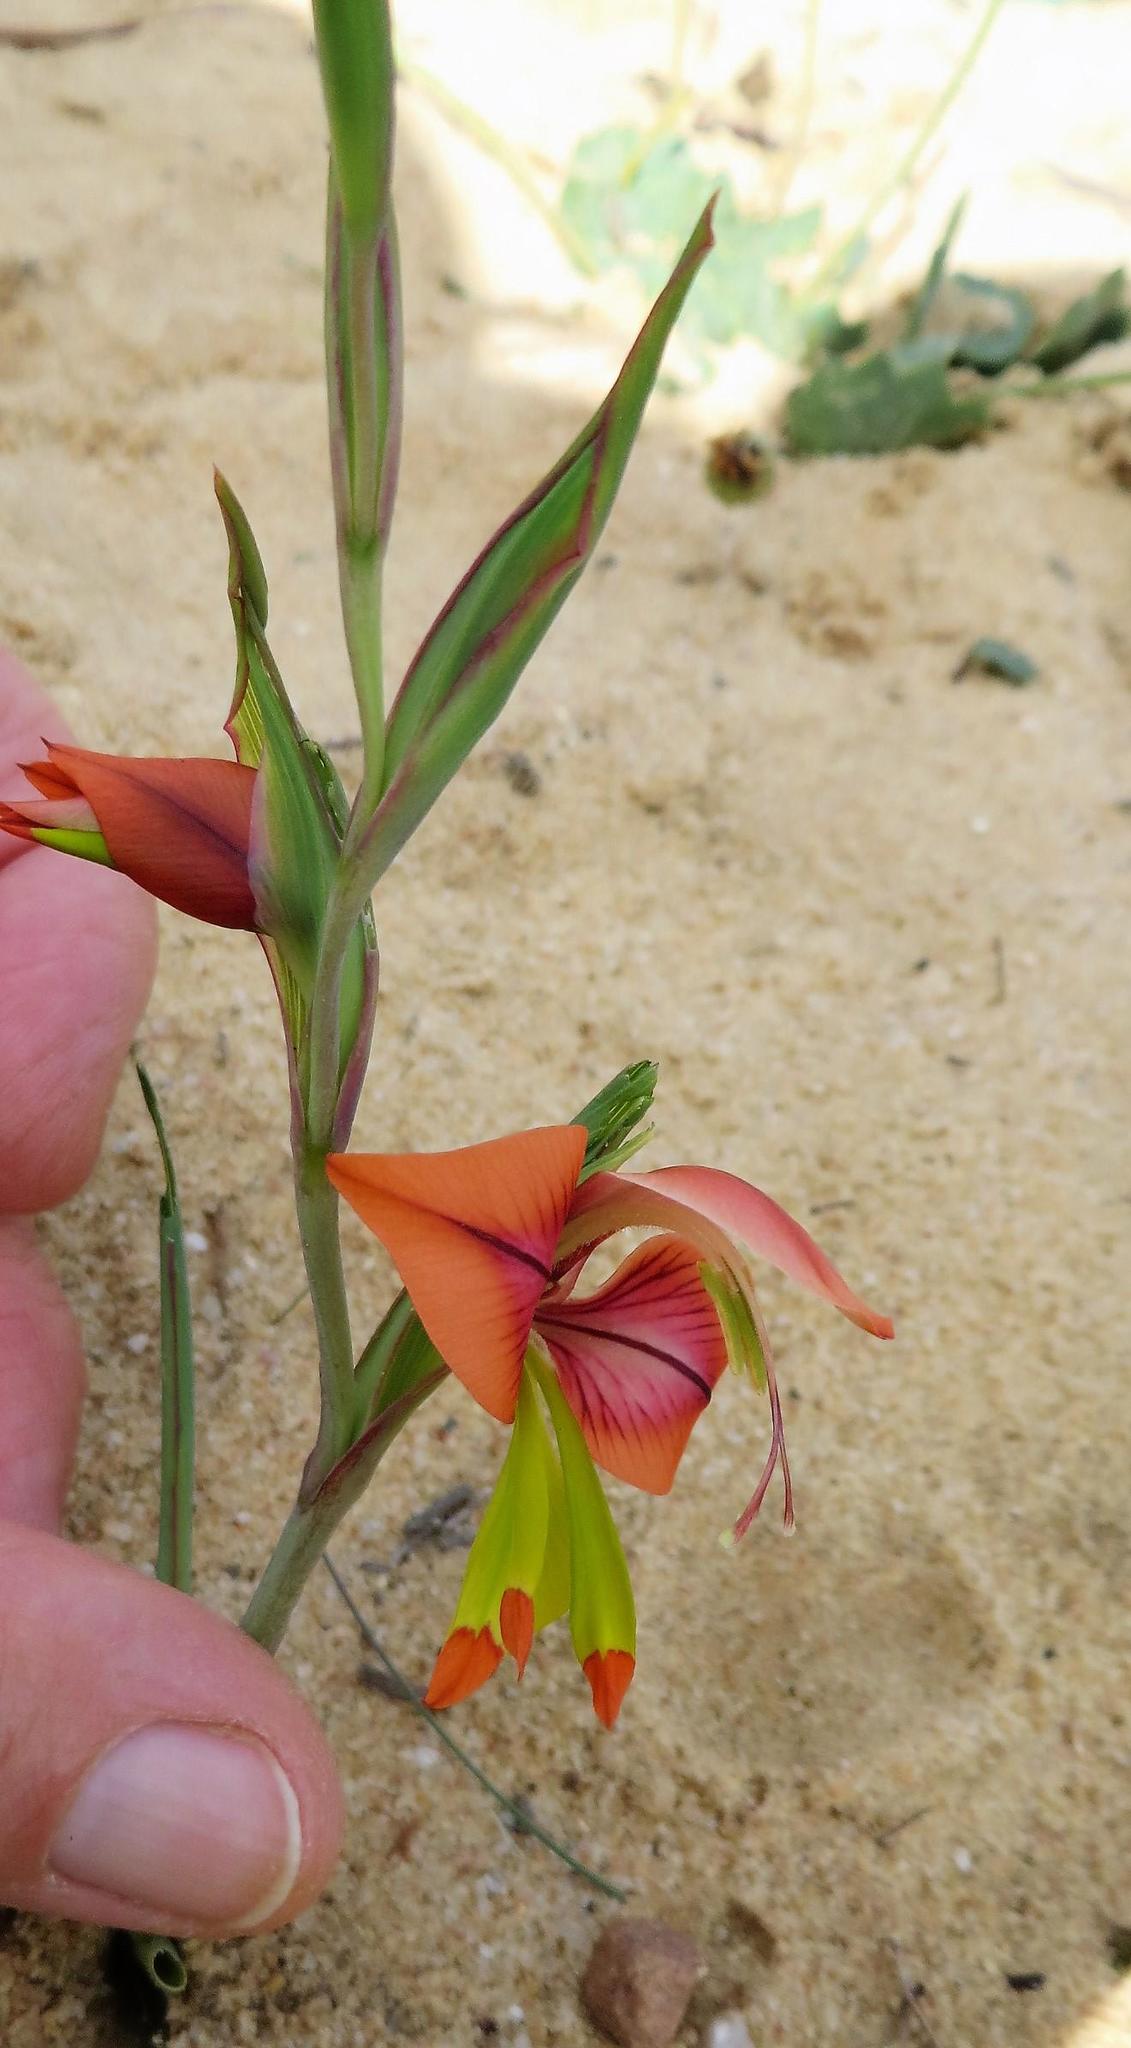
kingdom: Plantae
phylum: Tracheophyta
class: Liliopsida
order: Asparagales
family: Iridaceae
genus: Gladiolus
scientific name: Gladiolus speciosus
